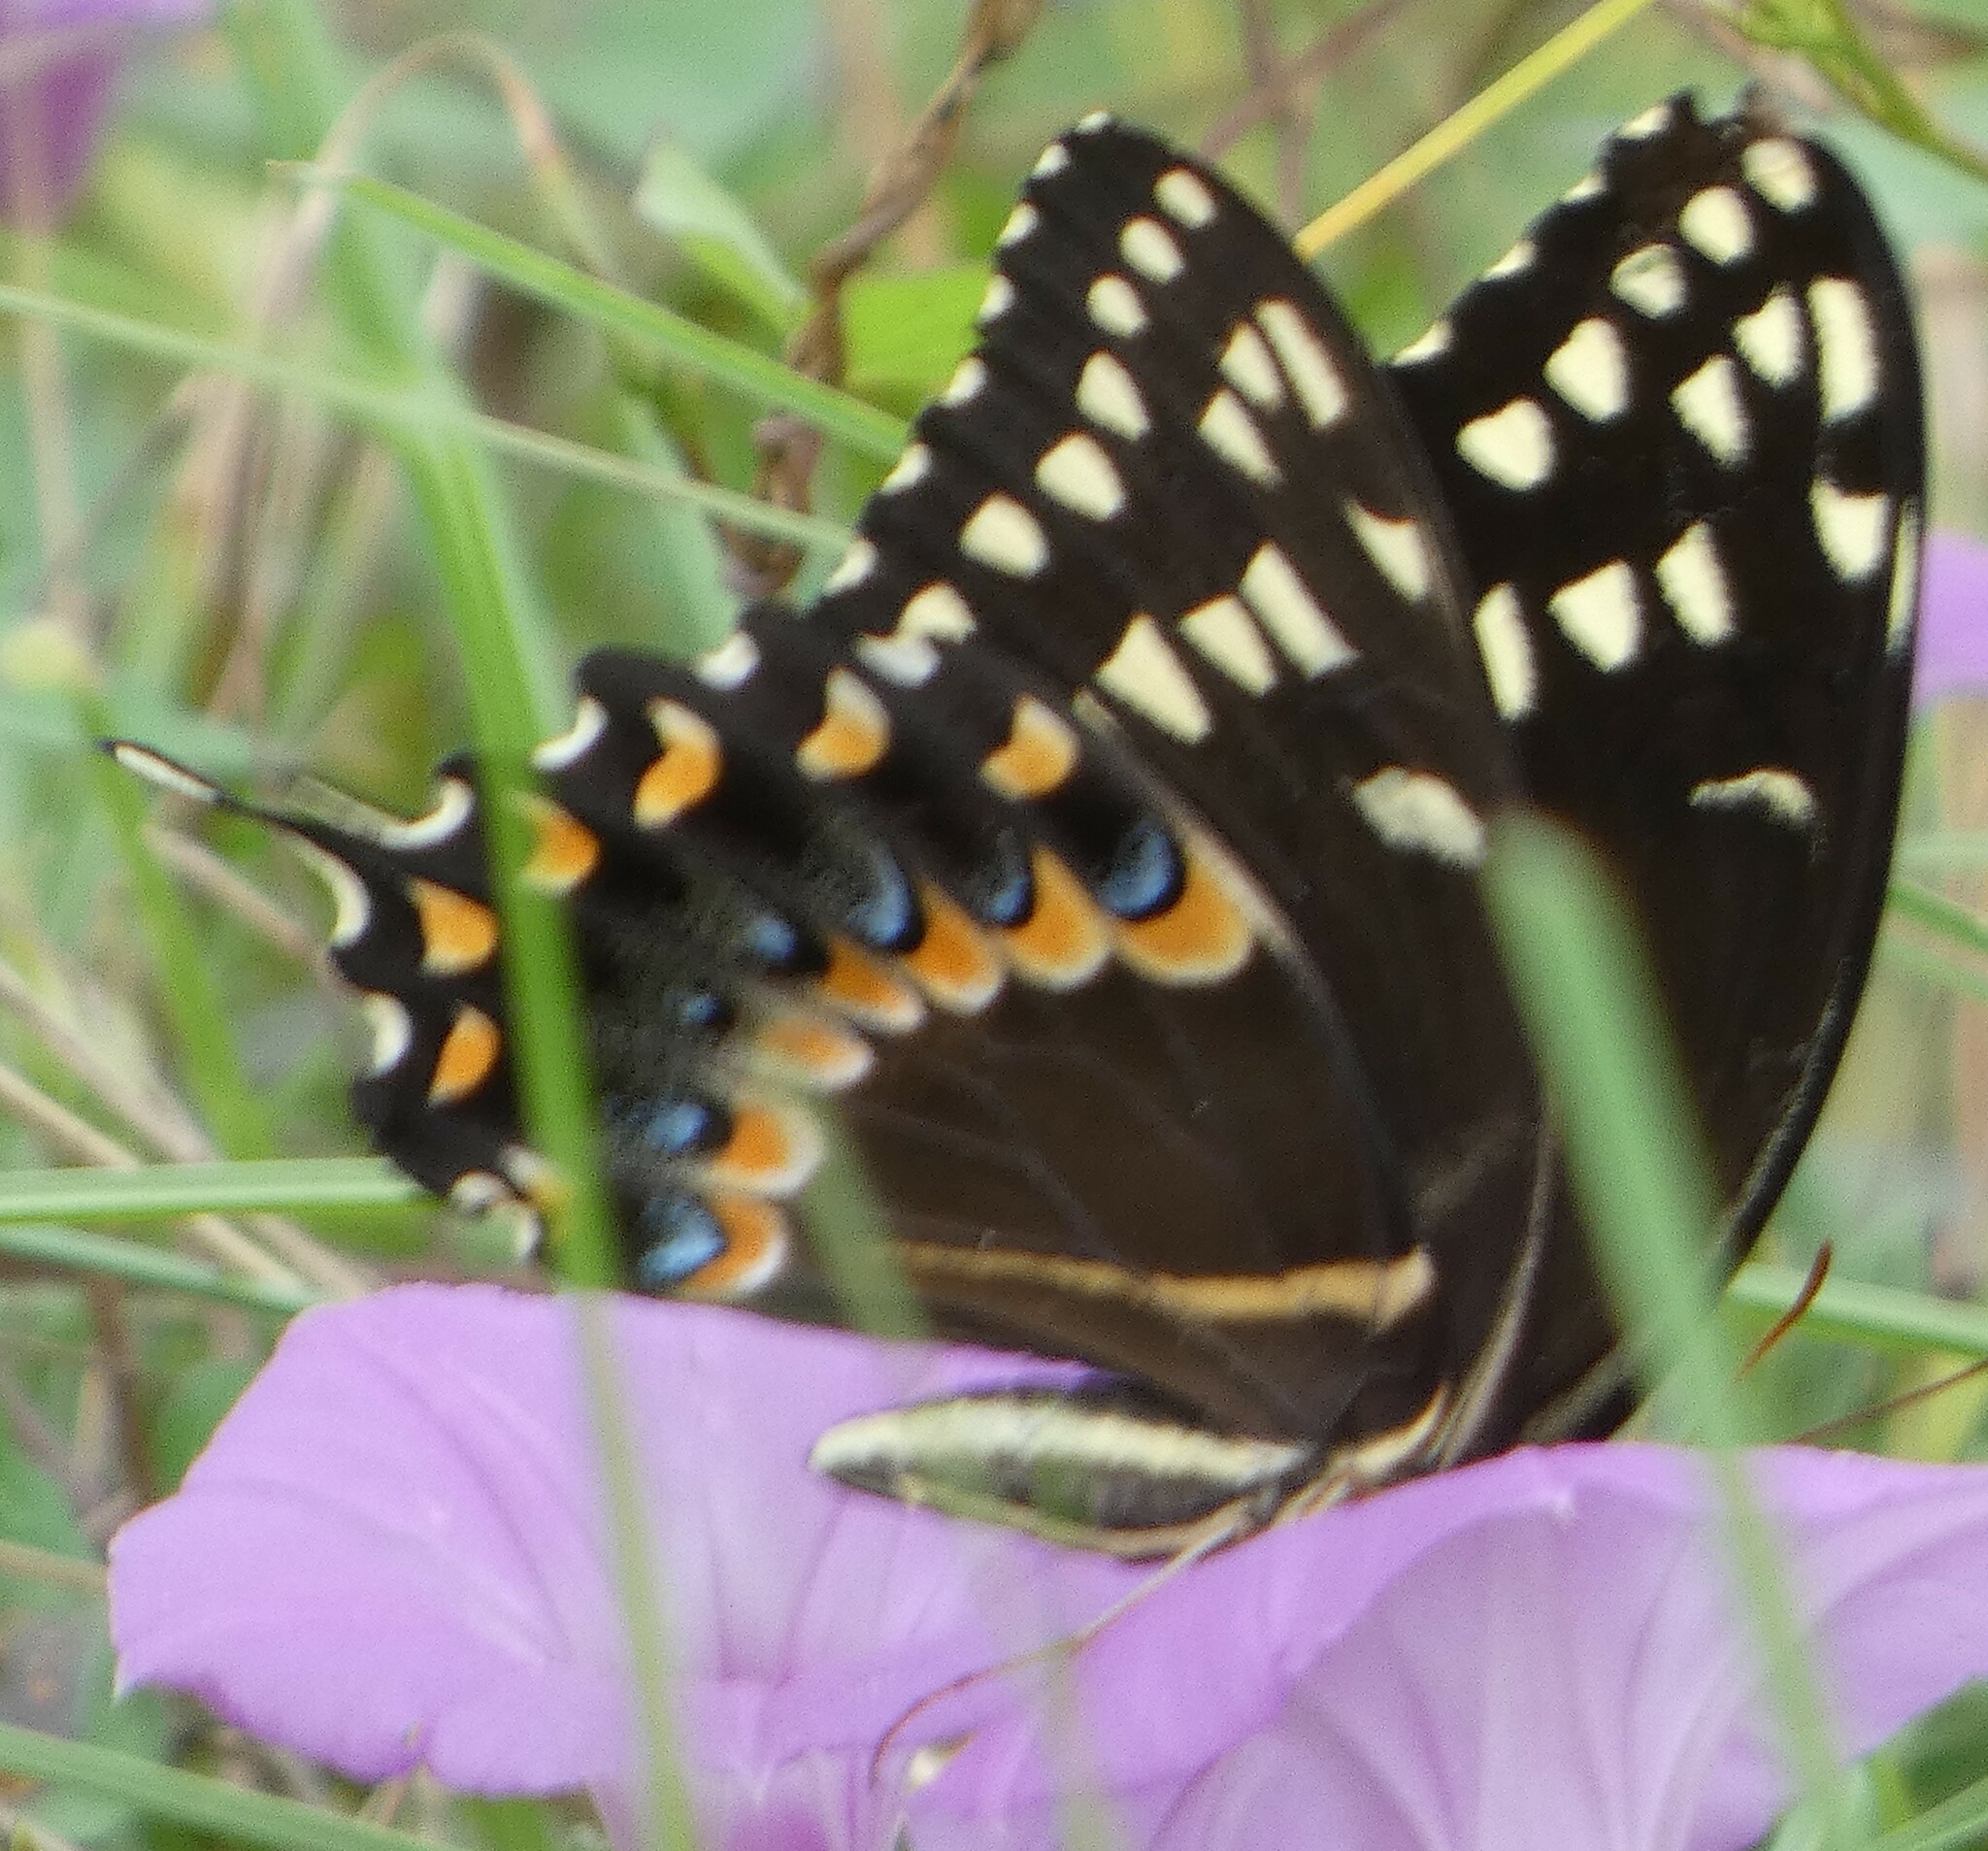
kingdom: Animalia
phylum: Arthropoda
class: Insecta
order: Lepidoptera
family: Papilionidae
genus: Papilio
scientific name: Papilio palamedes
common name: Palamedes swallowtail
